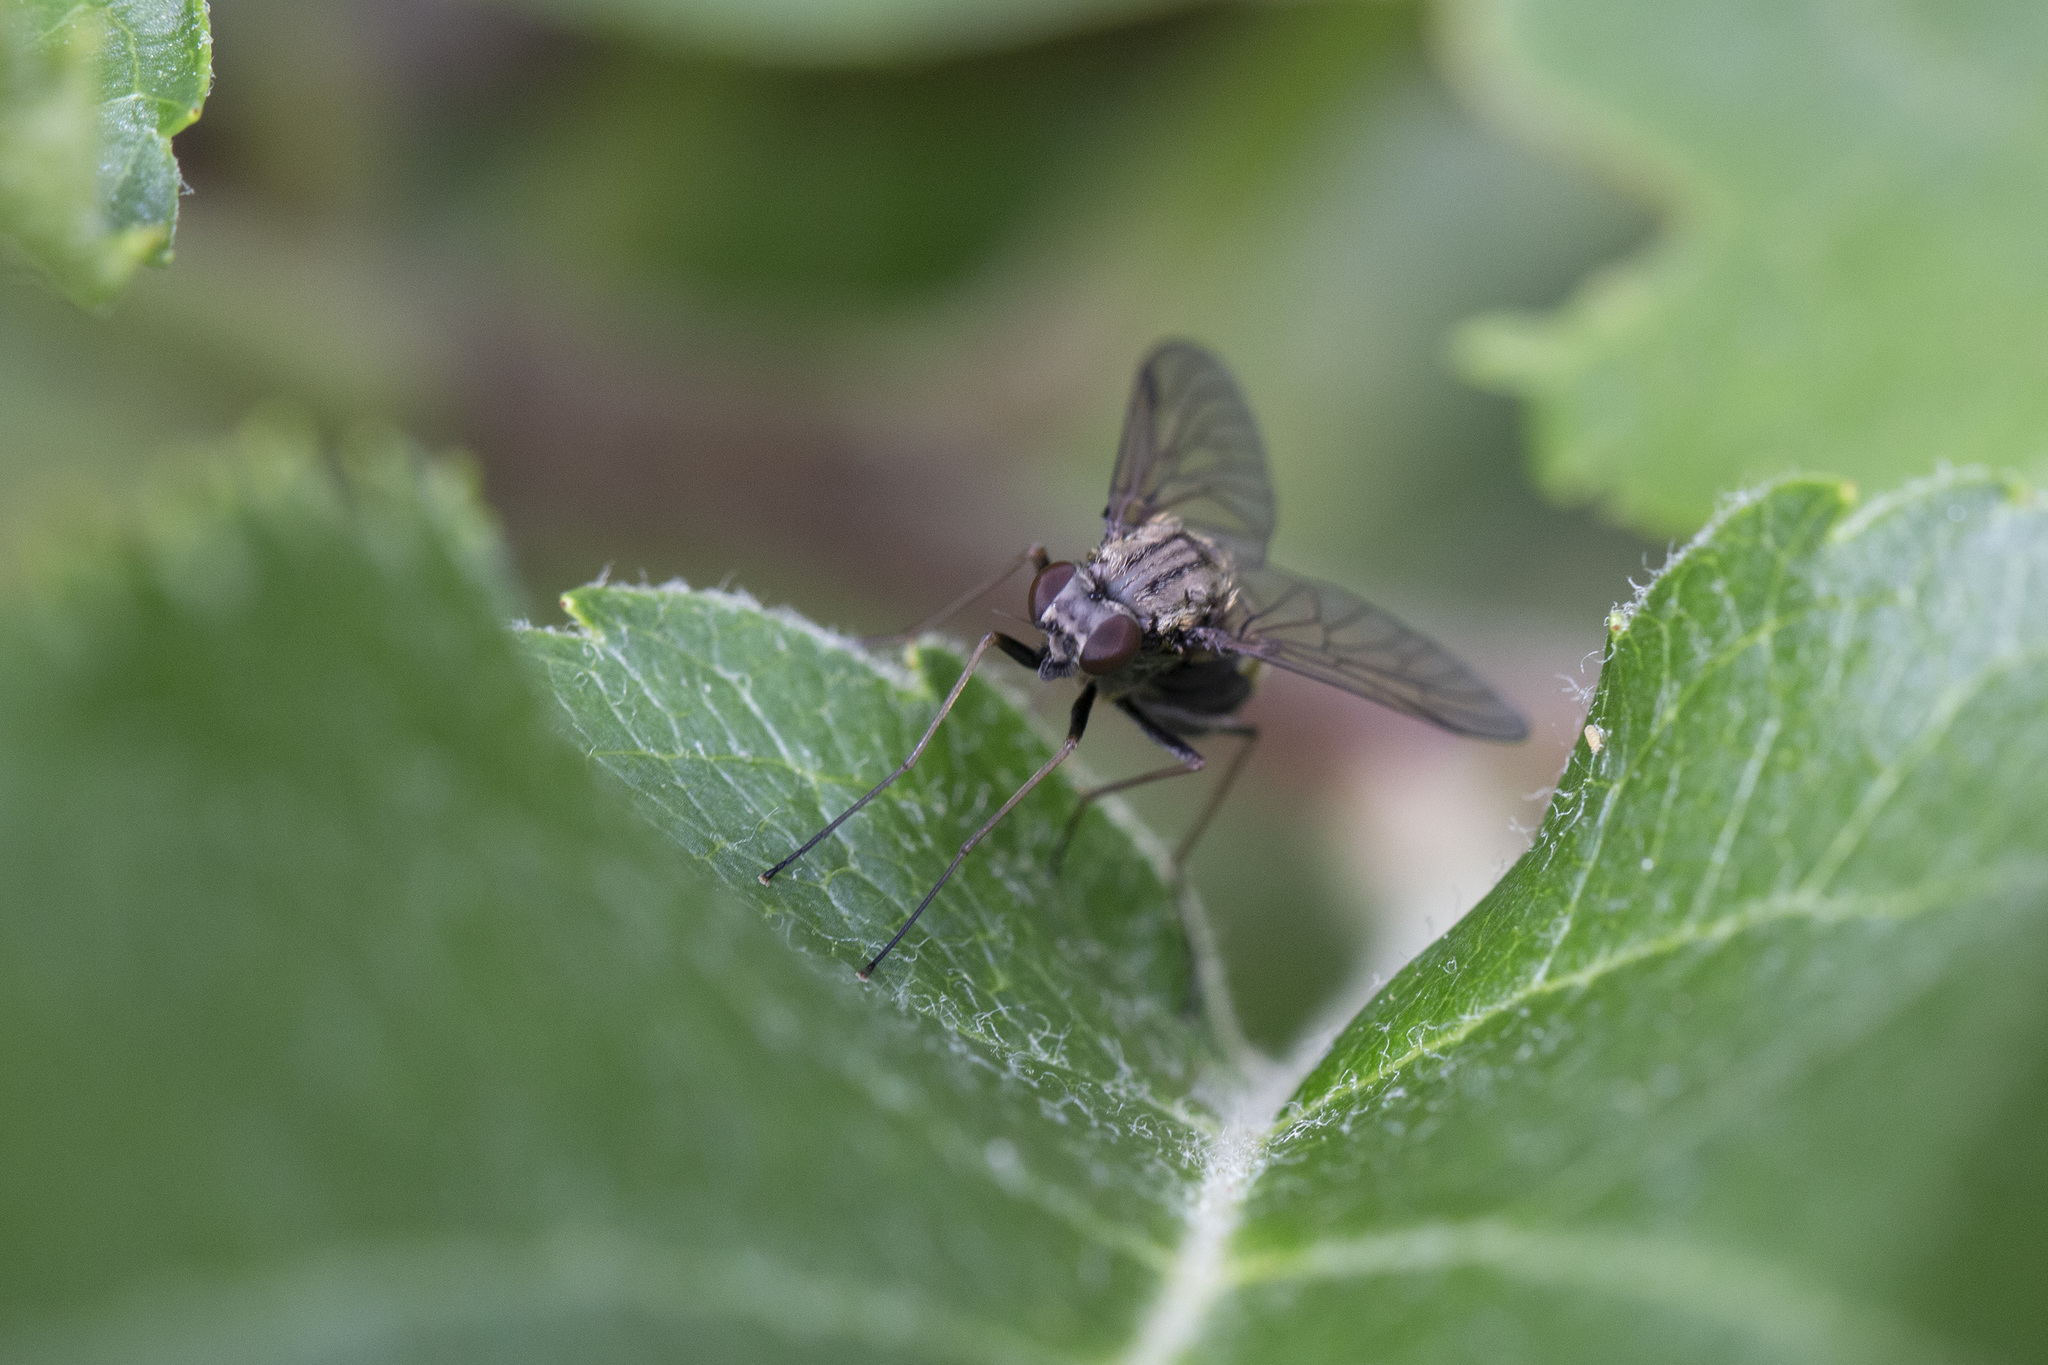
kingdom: Animalia
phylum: Arthropoda
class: Insecta
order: Diptera
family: Rhagionidae
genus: Chrysopilus
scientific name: Chrysopilus cristatus
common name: Black snipefly
